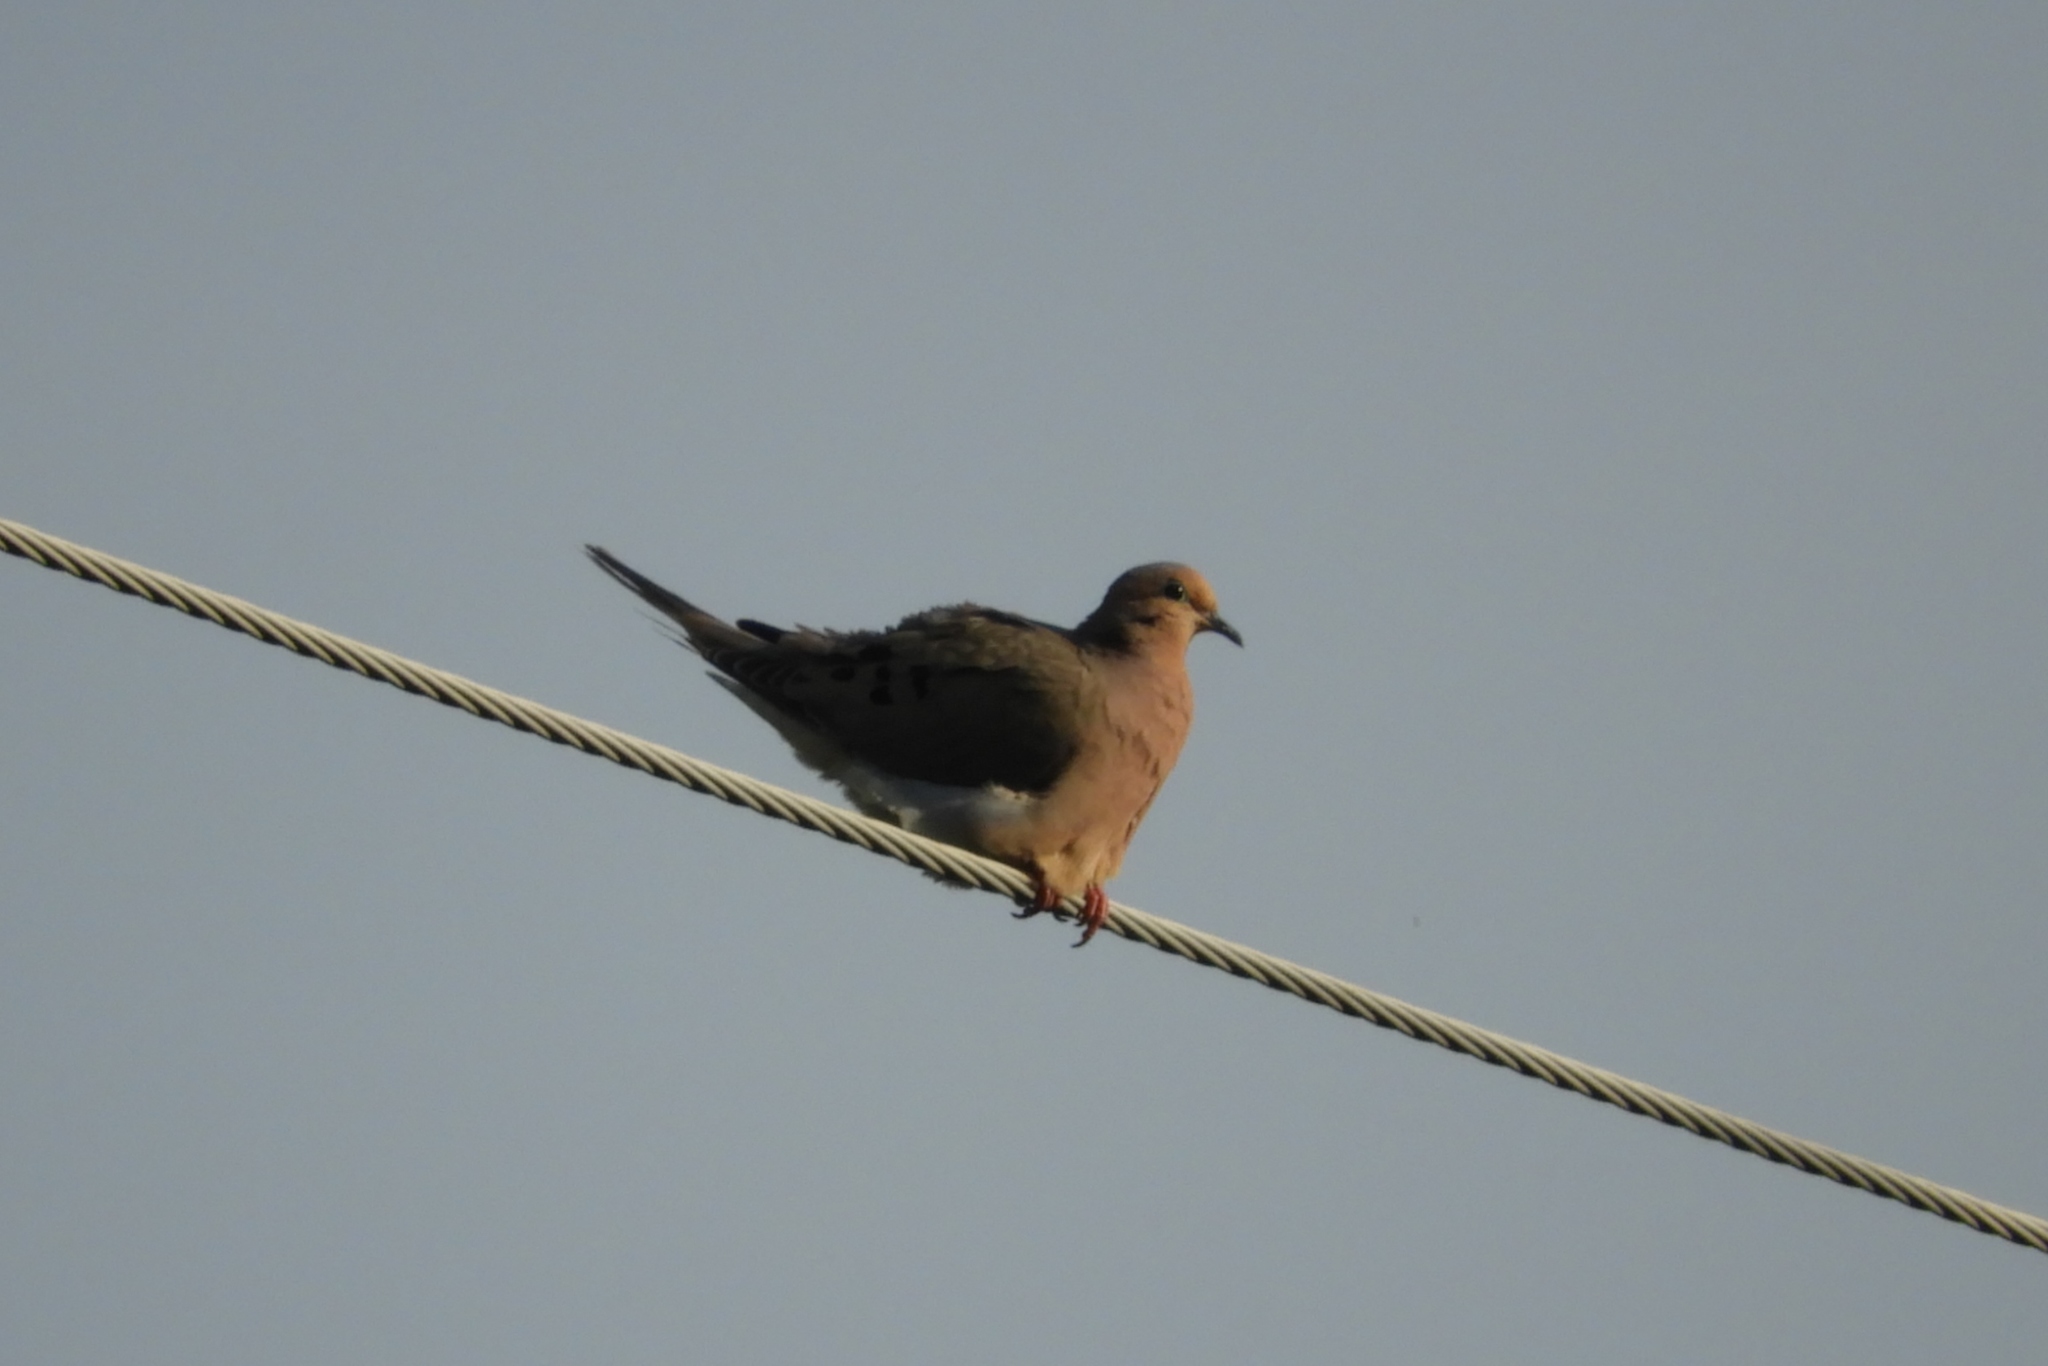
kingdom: Animalia
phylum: Chordata
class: Aves
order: Columbiformes
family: Columbidae
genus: Zenaida
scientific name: Zenaida macroura
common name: Mourning dove
